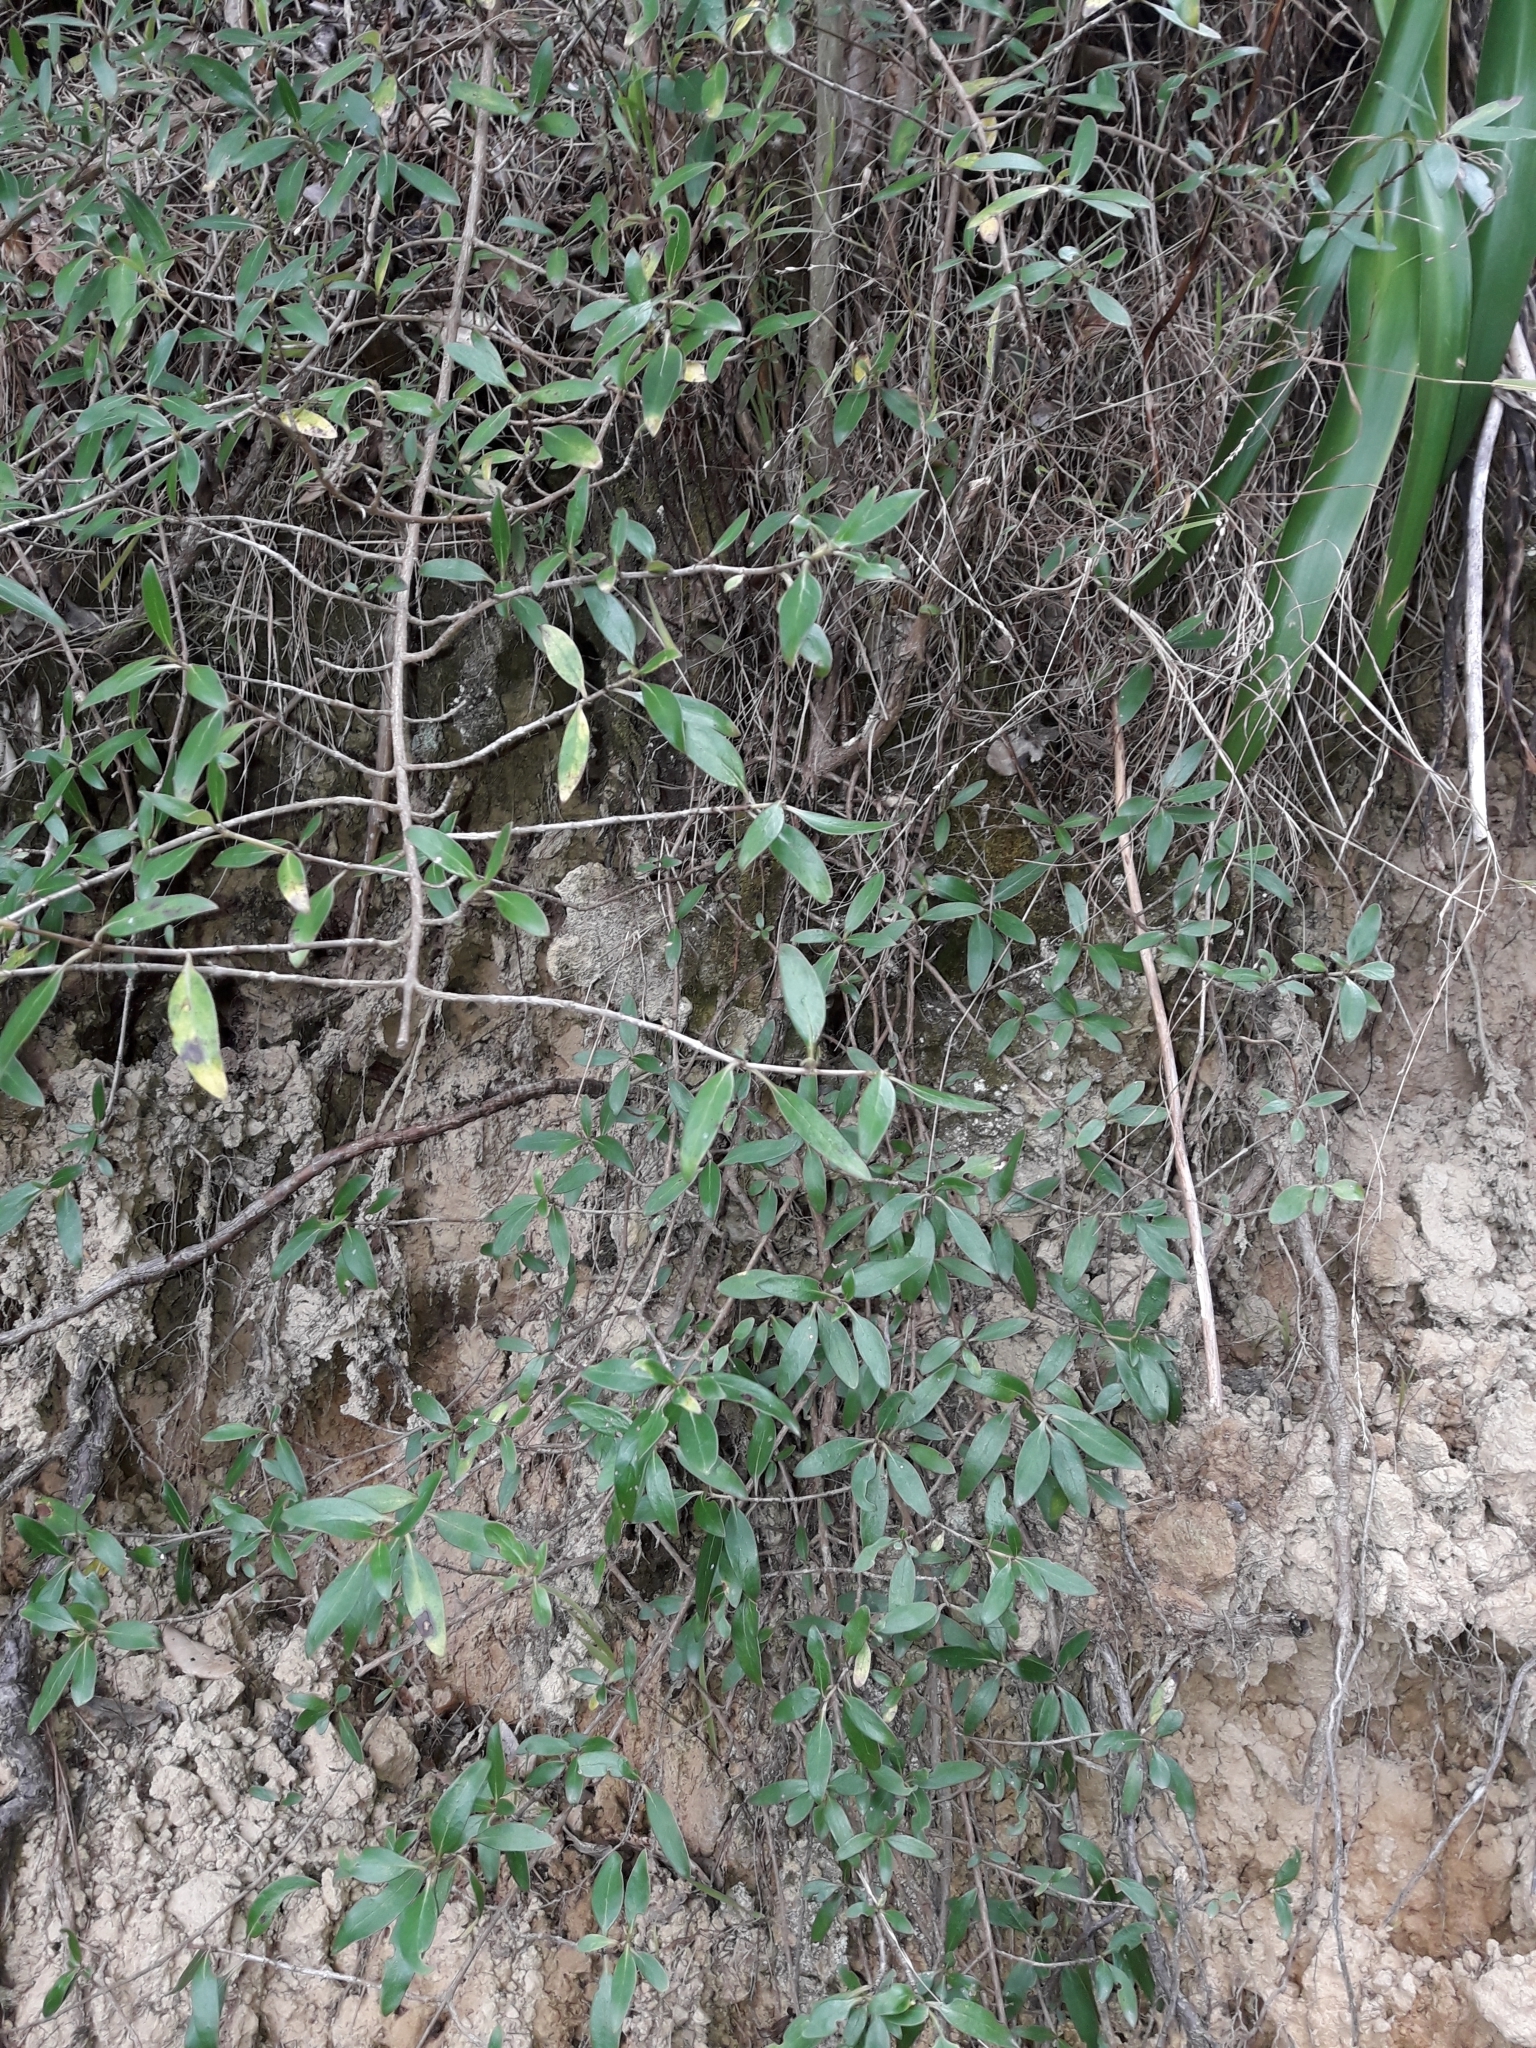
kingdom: Plantae
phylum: Tracheophyta
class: Magnoliopsida
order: Gentianales
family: Rubiaceae
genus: Coprosma
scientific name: Coprosma cunninghamii
